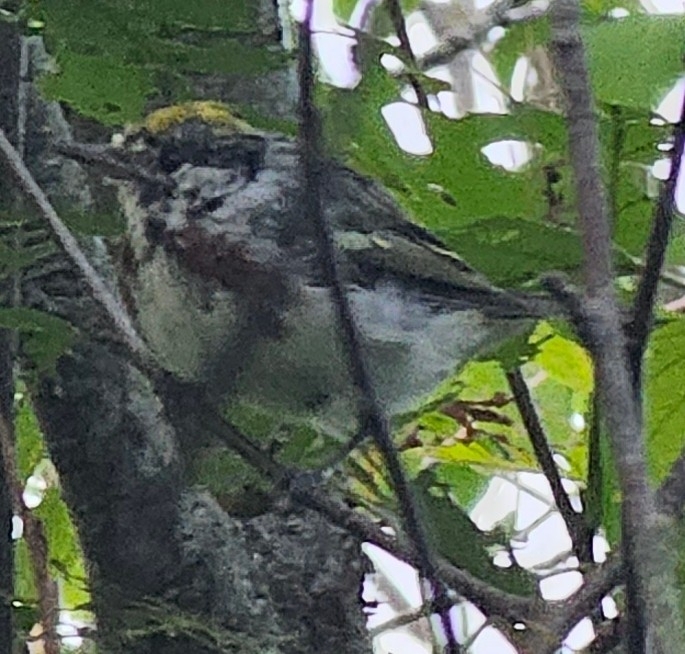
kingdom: Animalia
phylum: Chordata
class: Aves
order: Passeriformes
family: Parulidae
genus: Setophaga
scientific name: Setophaga pensylvanica
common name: Chestnut-sided warbler
